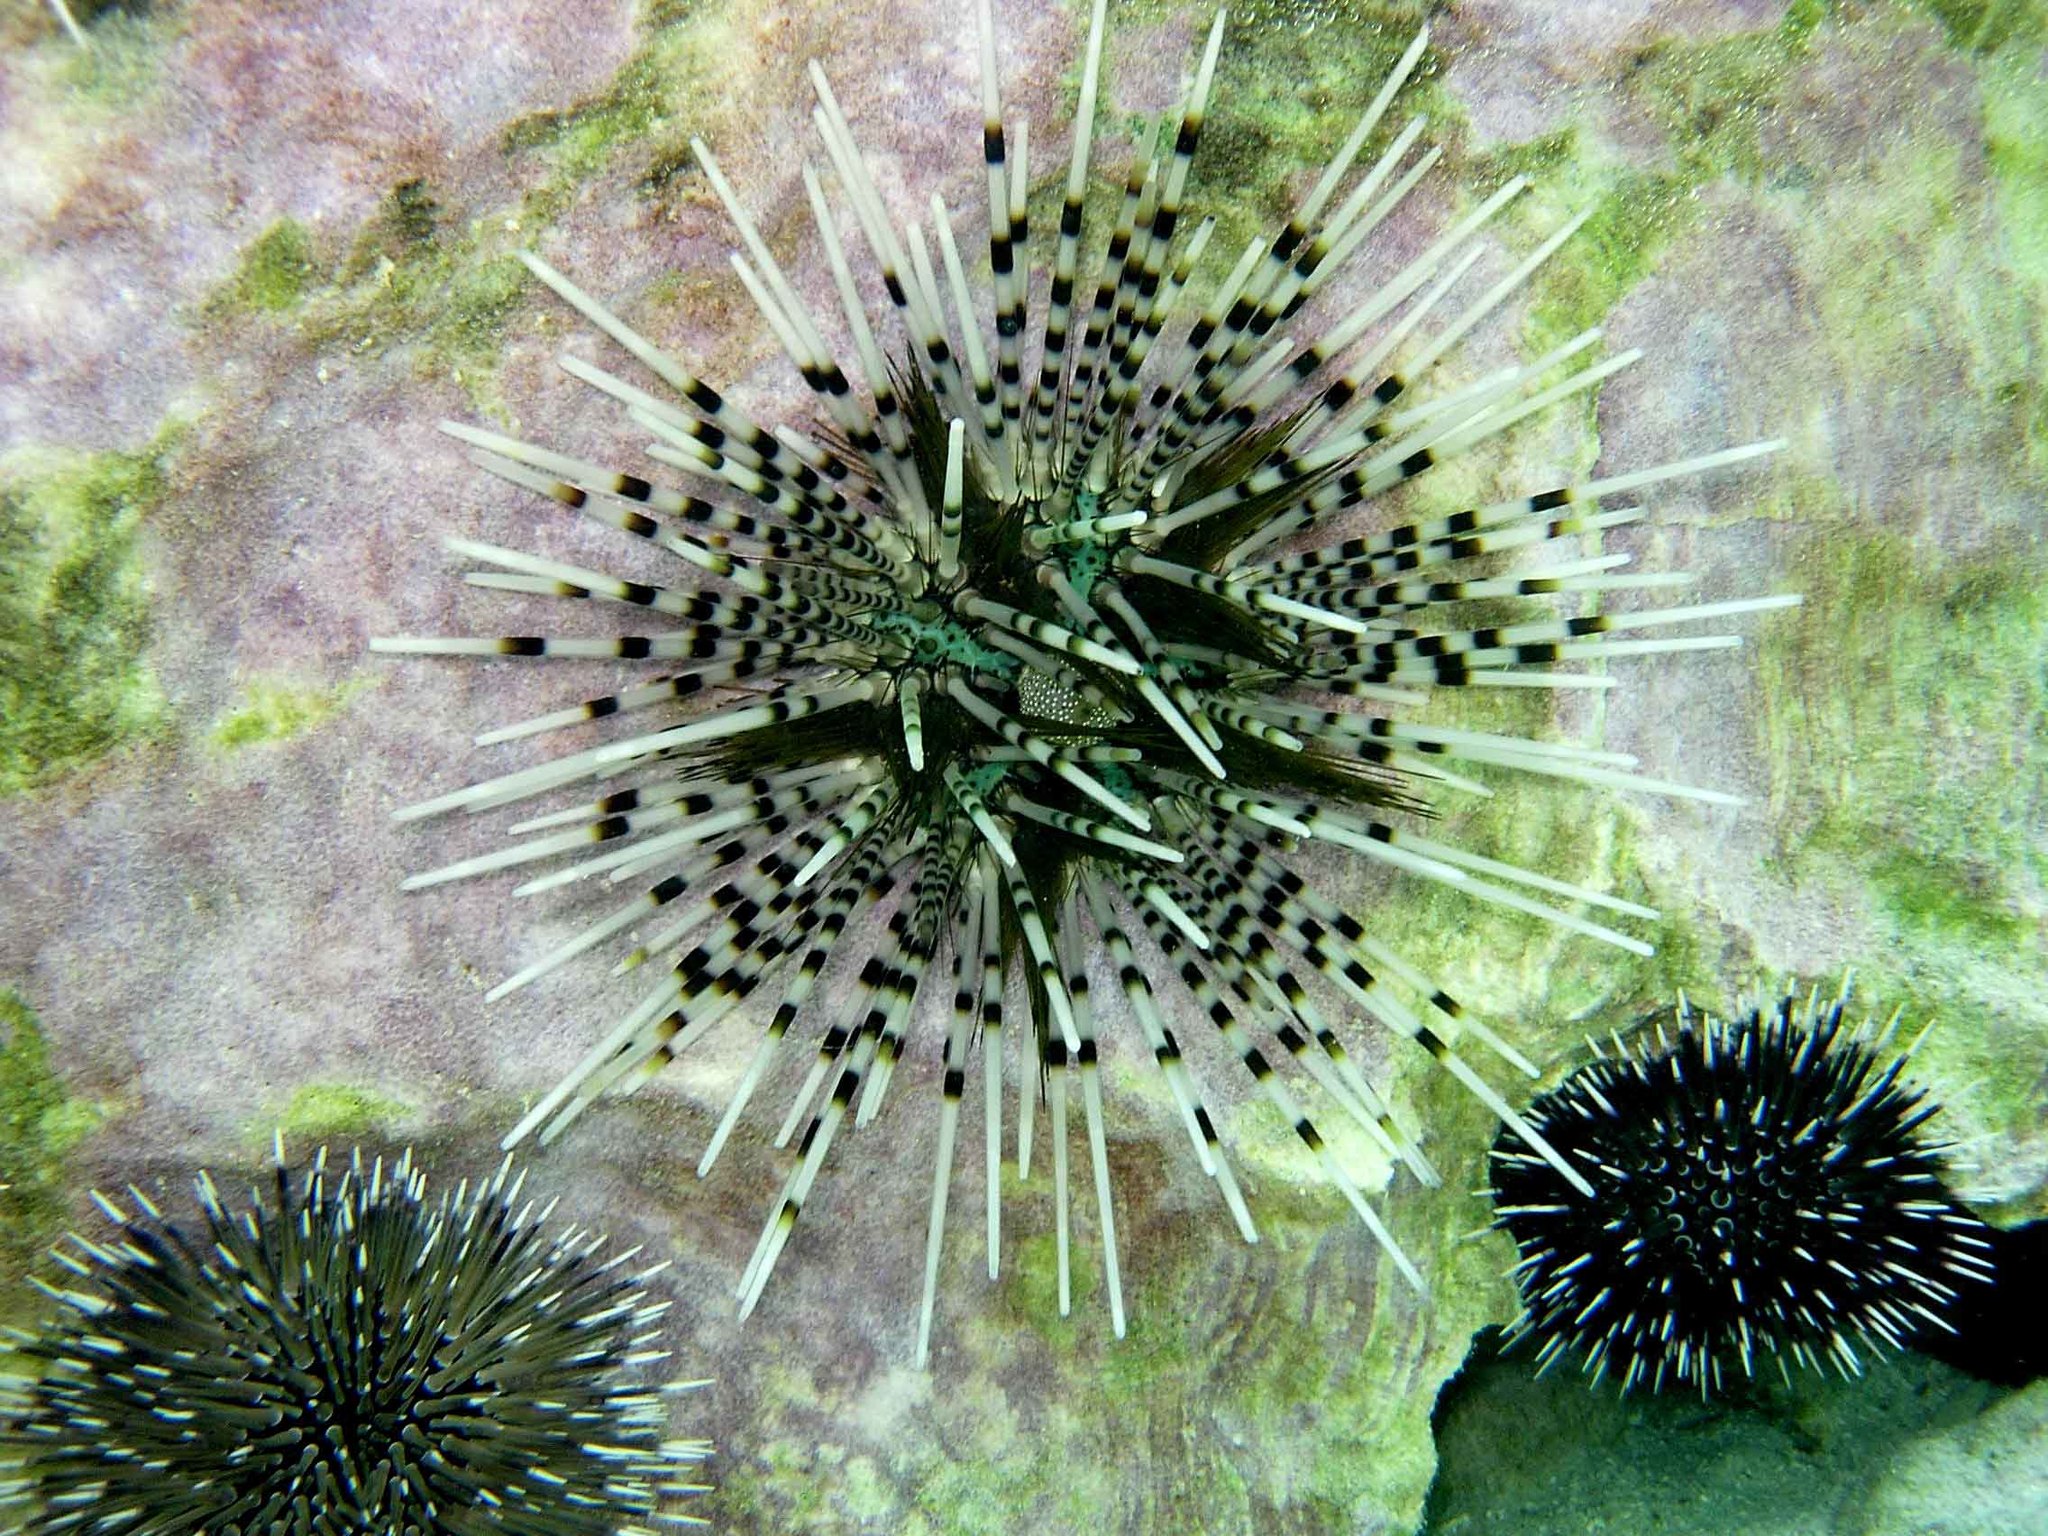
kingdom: Animalia
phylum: Echinodermata
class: Echinoidea
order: Diadematoida
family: Diadematidae
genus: Echinothrix
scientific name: Echinothrix calamaris
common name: Banded sea urchin
